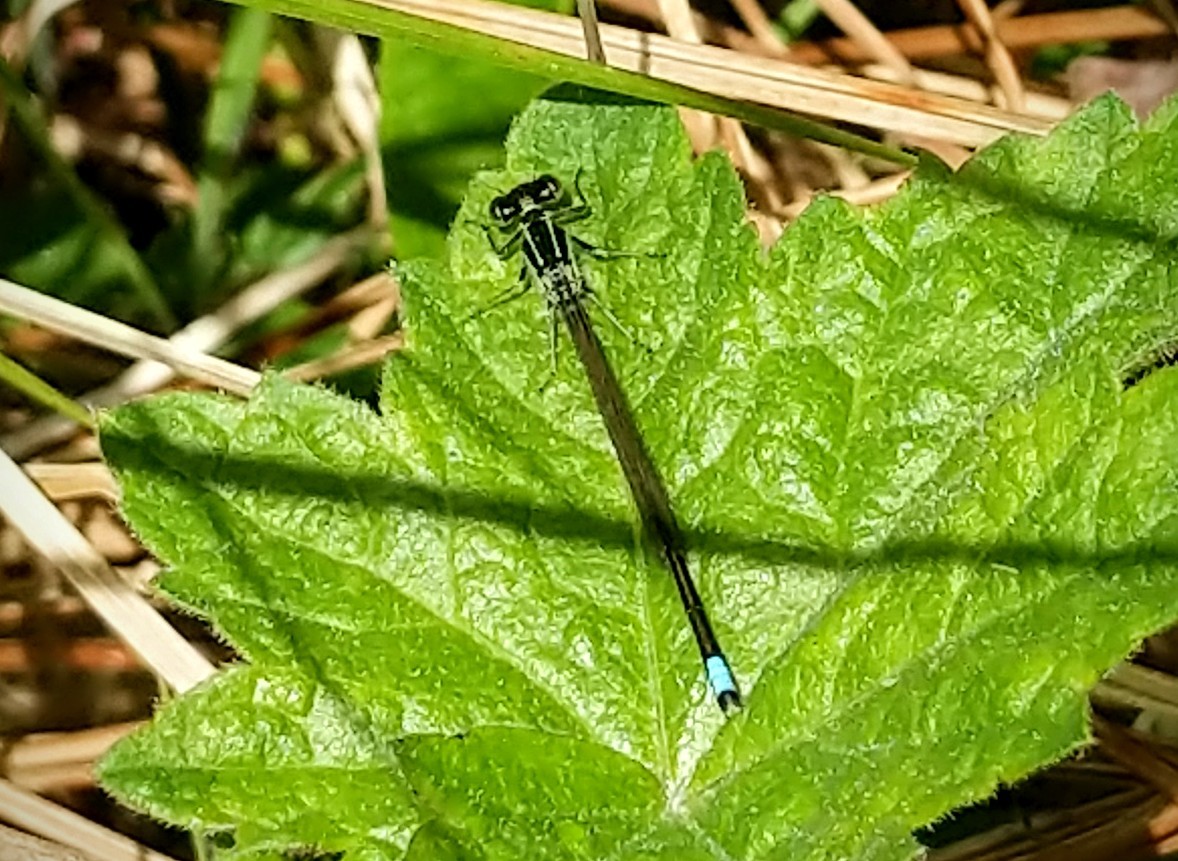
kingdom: Animalia
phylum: Arthropoda
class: Insecta
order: Odonata
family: Coenagrionidae
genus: Ischnura
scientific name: Ischnura verticalis
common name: Eastern forktail
